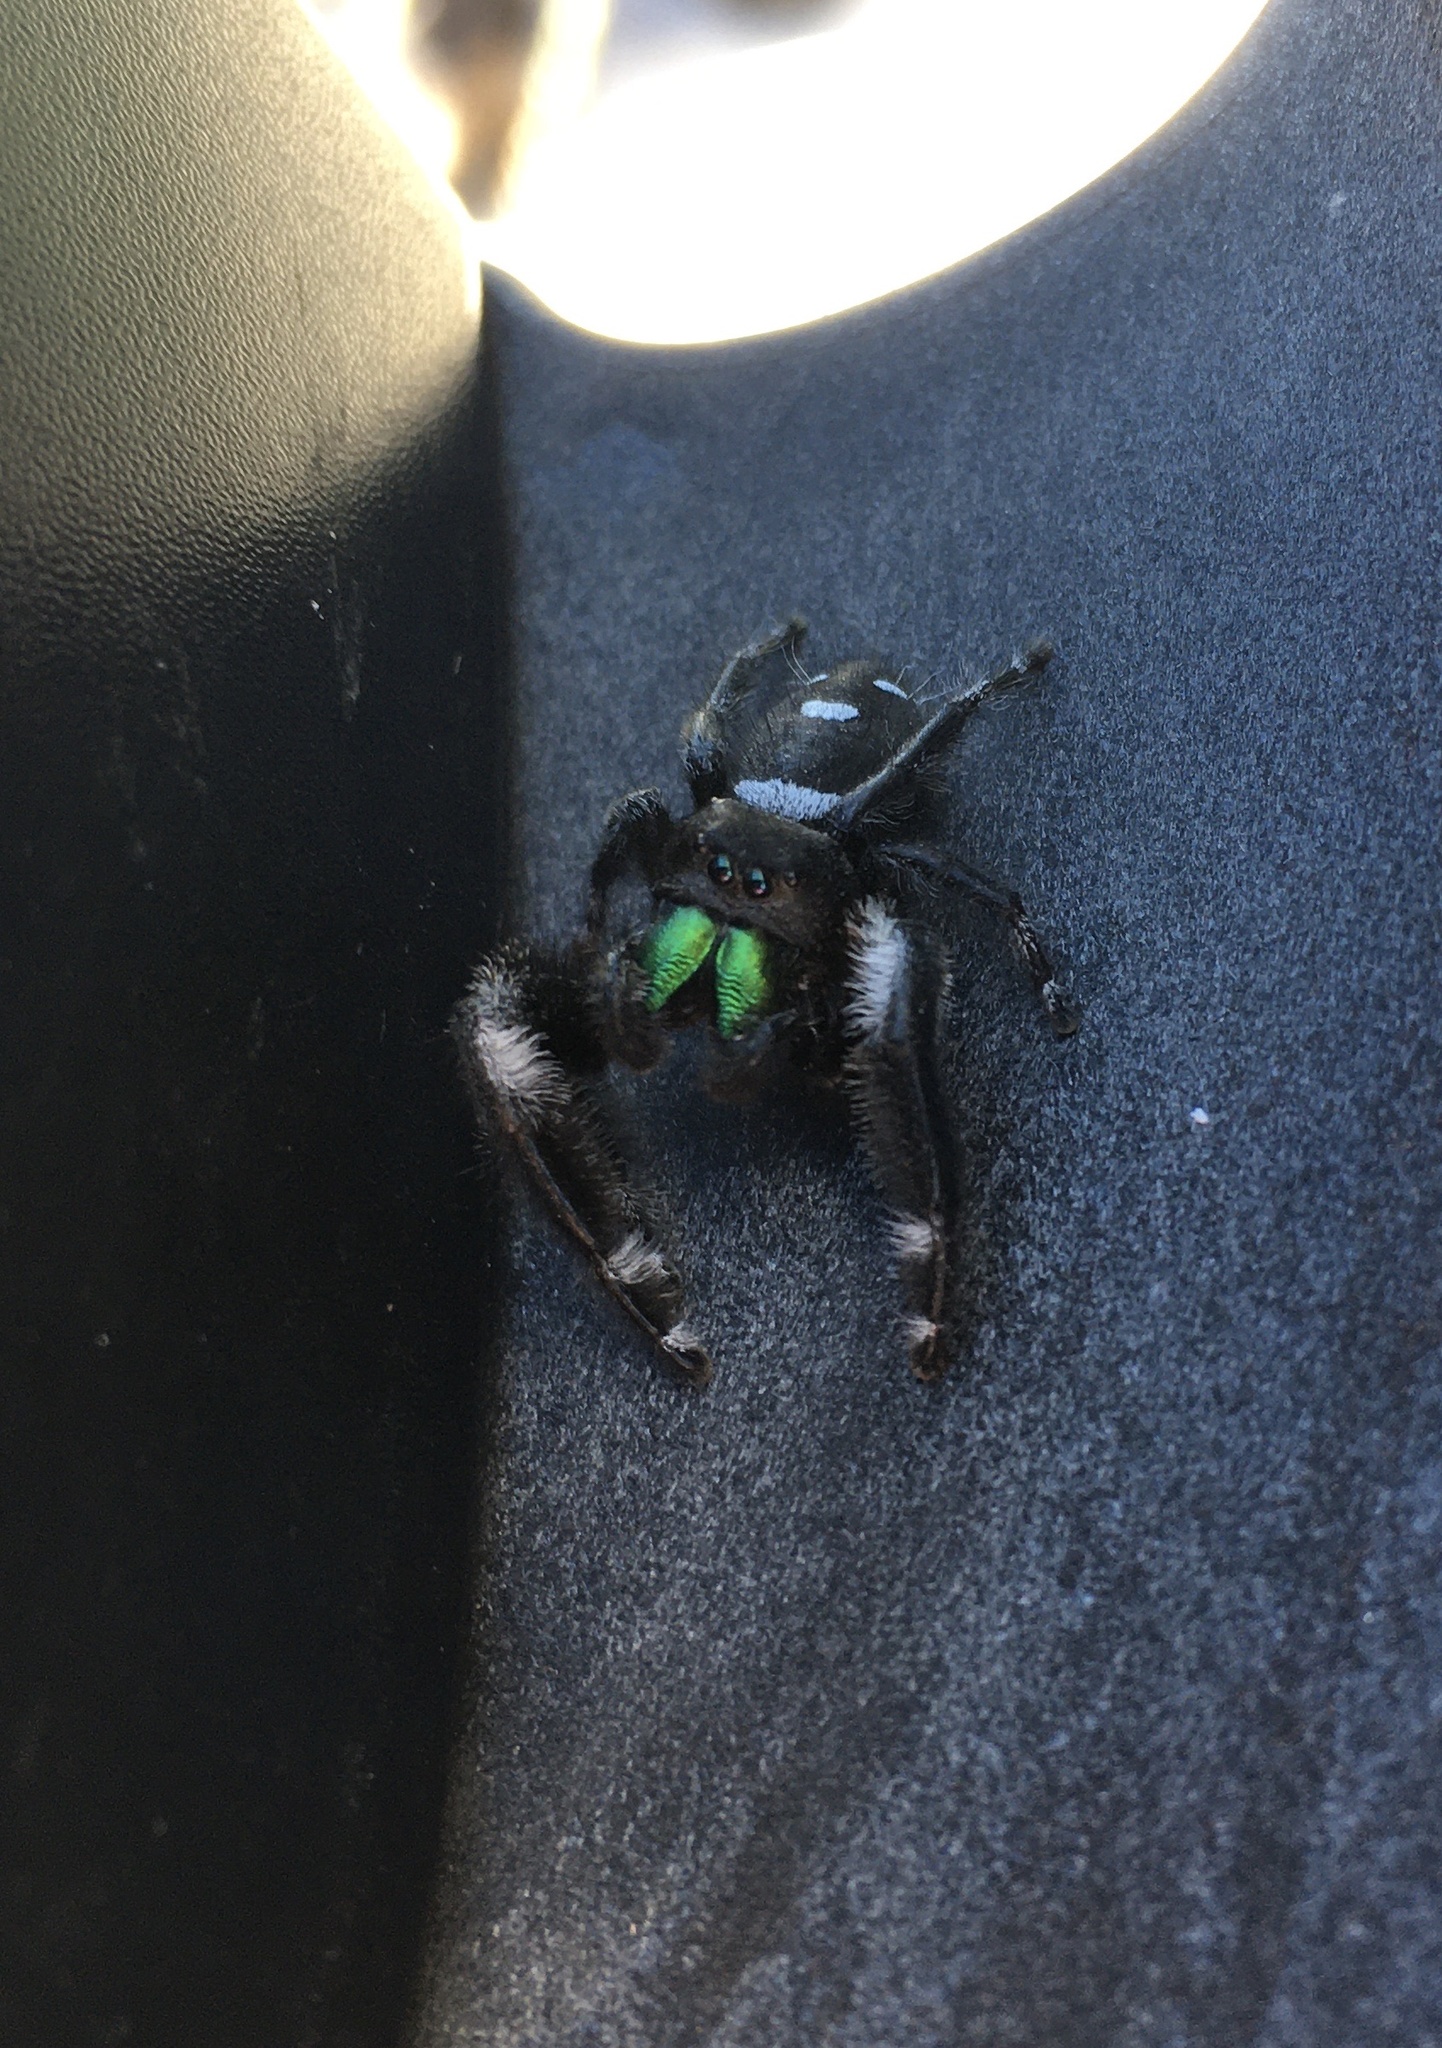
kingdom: Animalia
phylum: Arthropoda
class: Arachnida
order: Araneae
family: Salticidae
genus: Phidippus
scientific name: Phidippus regius
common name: Regal jumper
